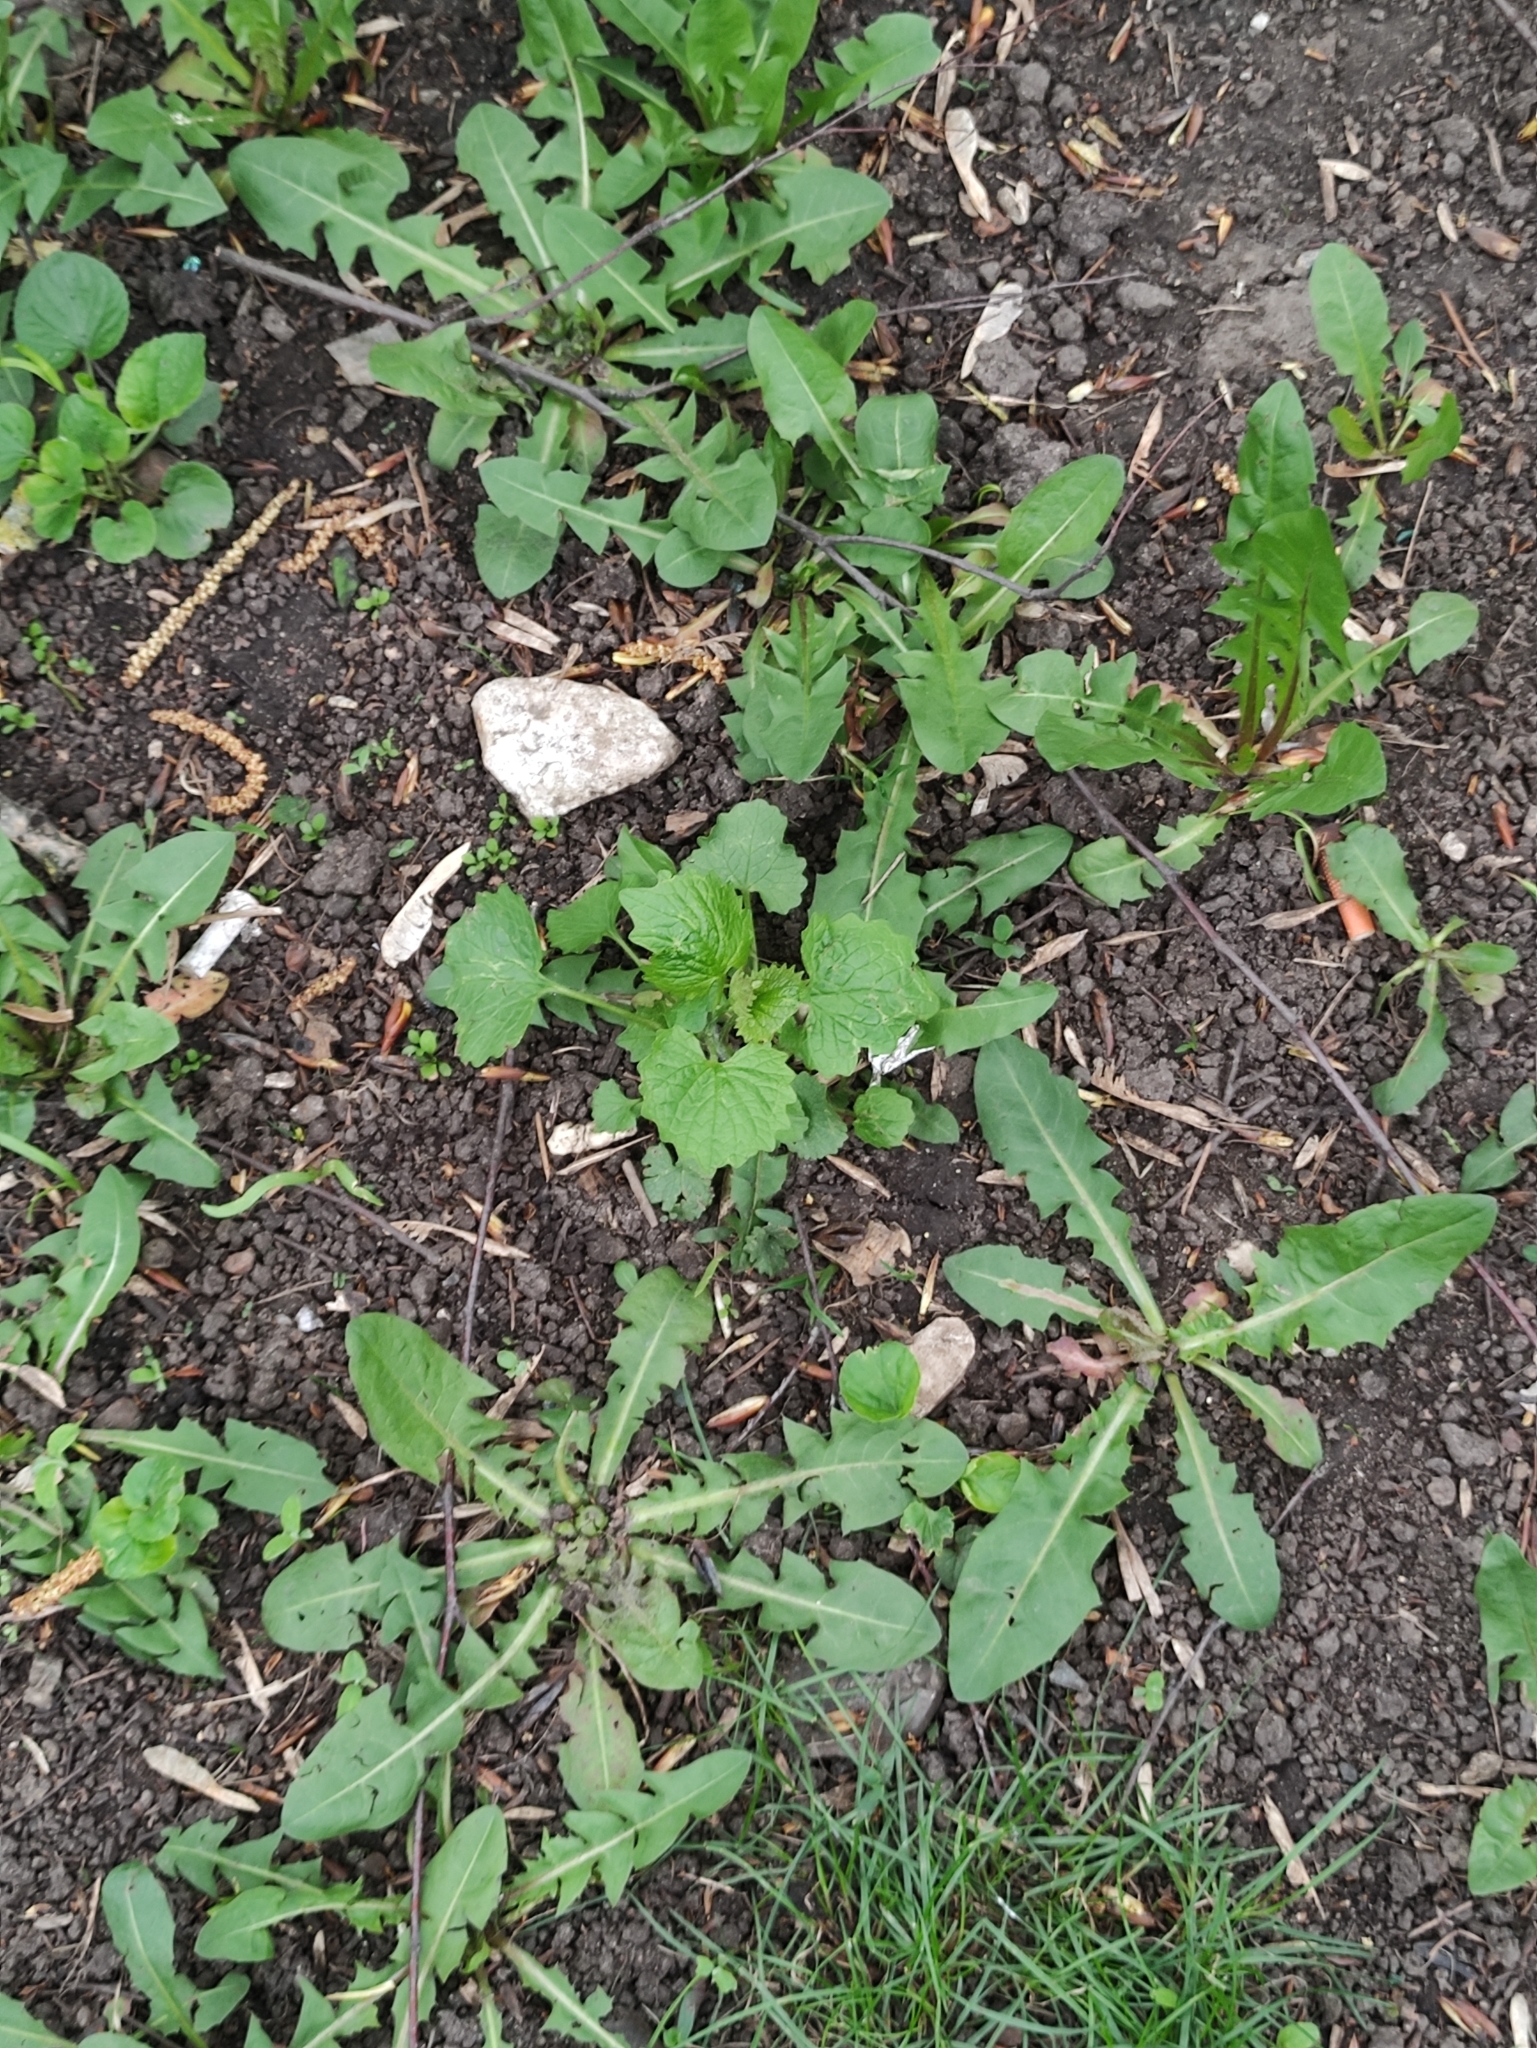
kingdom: Plantae
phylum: Tracheophyta
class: Magnoliopsida
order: Brassicales
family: Brassicaceae
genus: Alliaria
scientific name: Alliaria petiolata
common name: Garlic mustard
